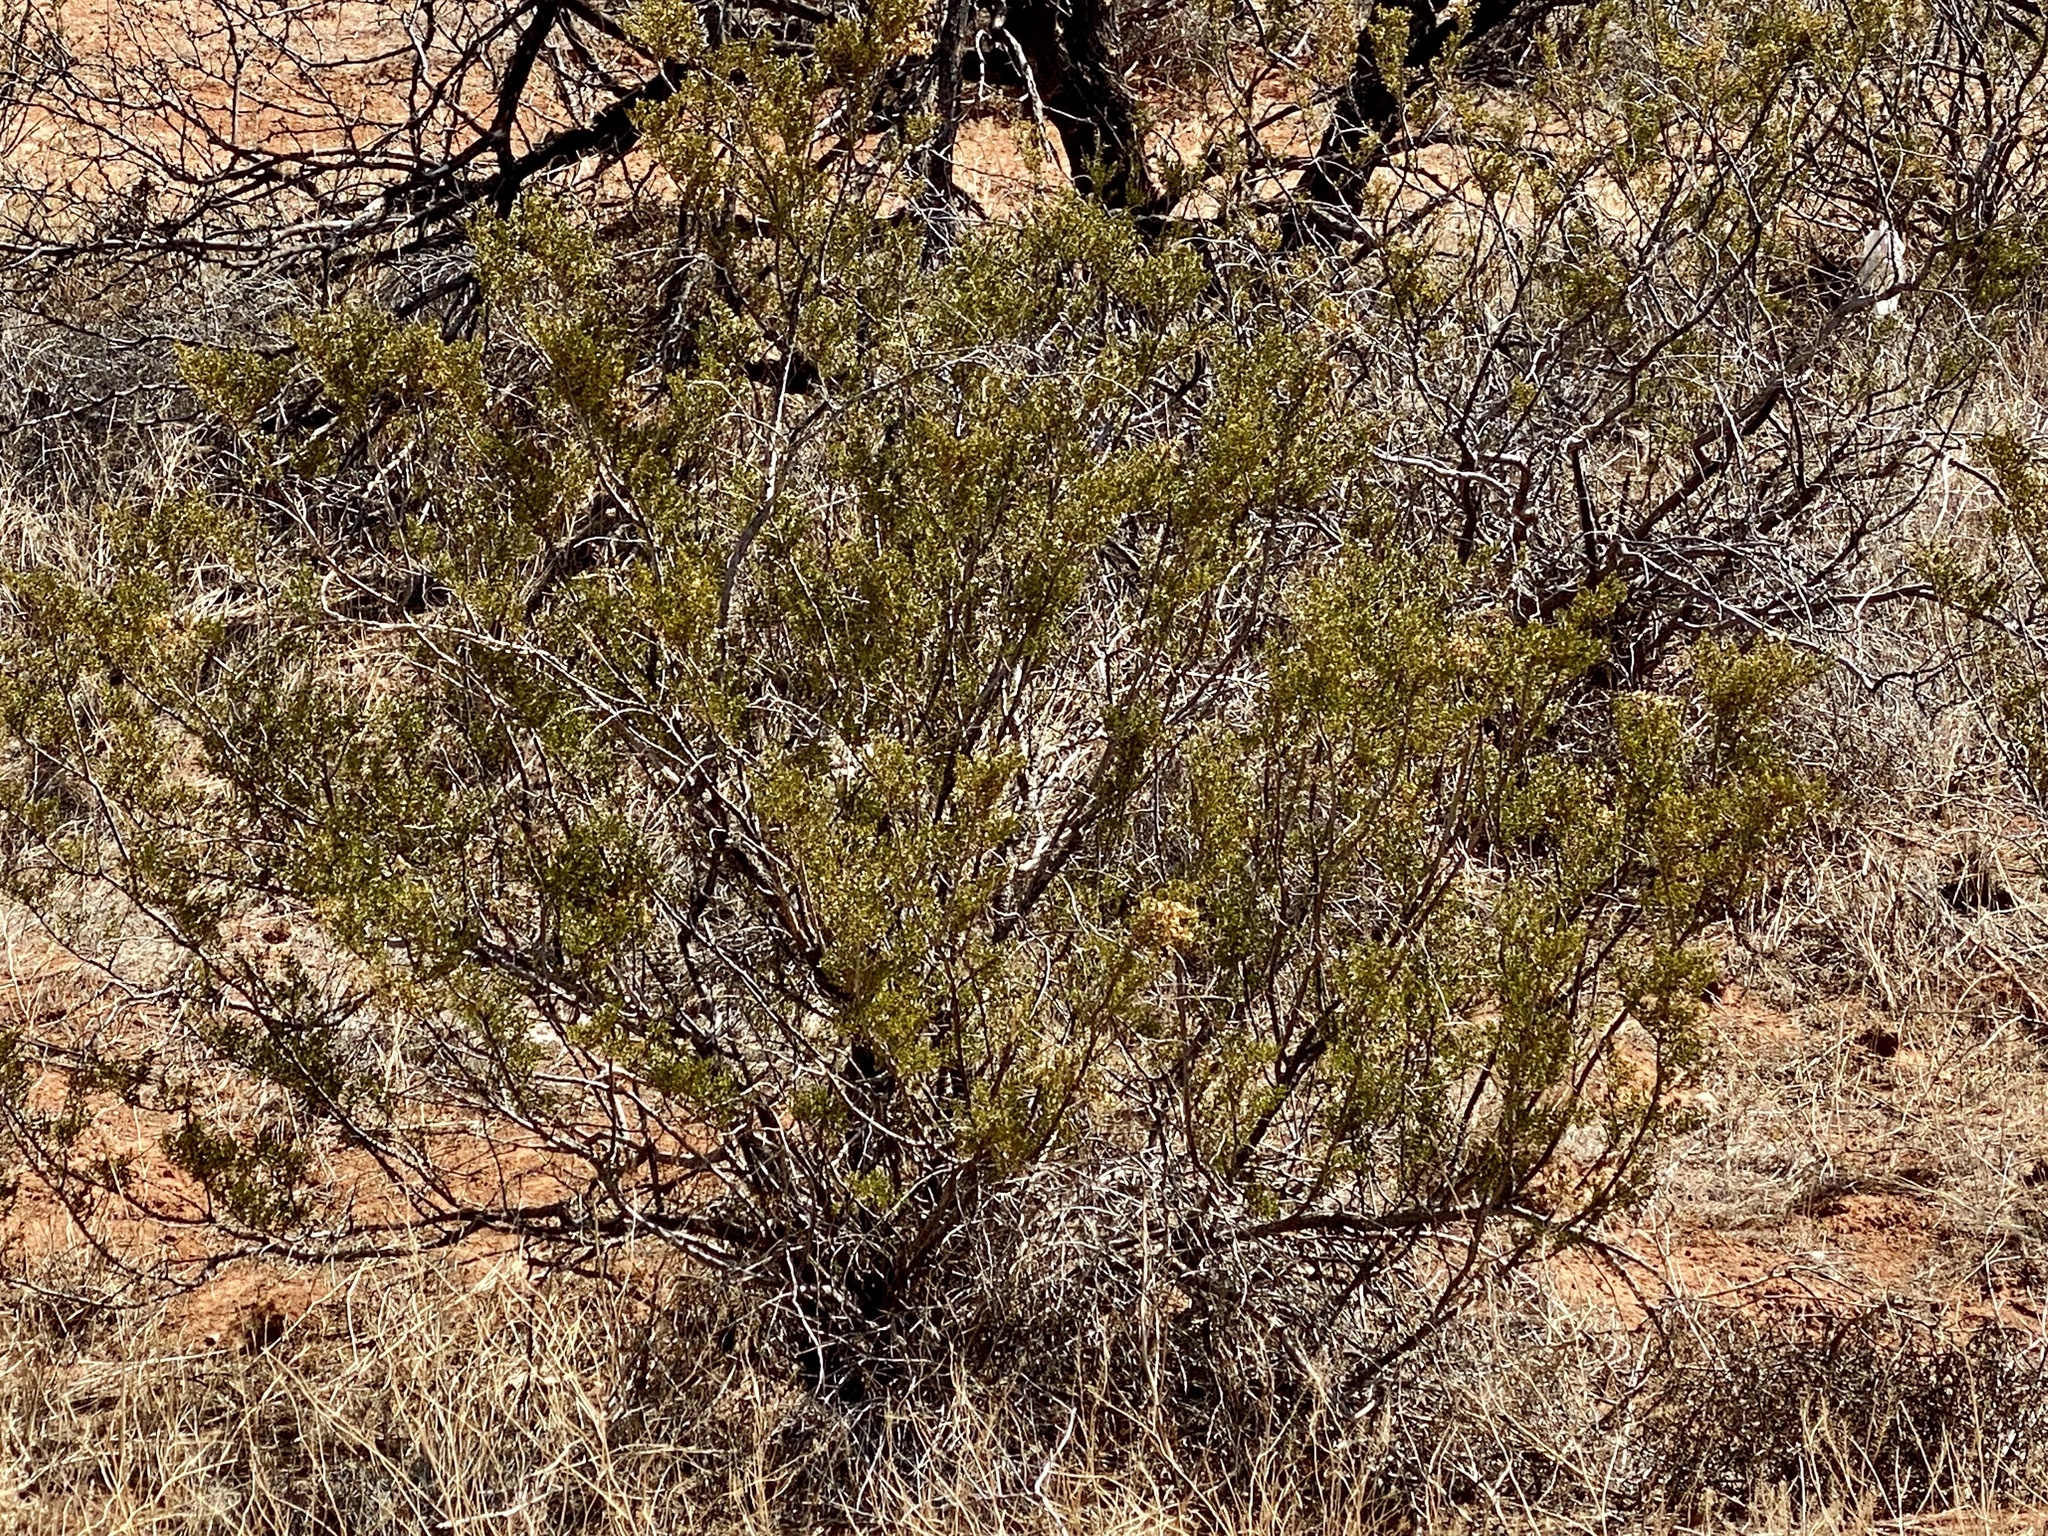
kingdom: Plantae
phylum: Tracheophyta
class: Magnoliopsida
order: Zygophyllales
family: Zygophyllaceae
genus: Larrea
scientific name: Larrea tridentata
